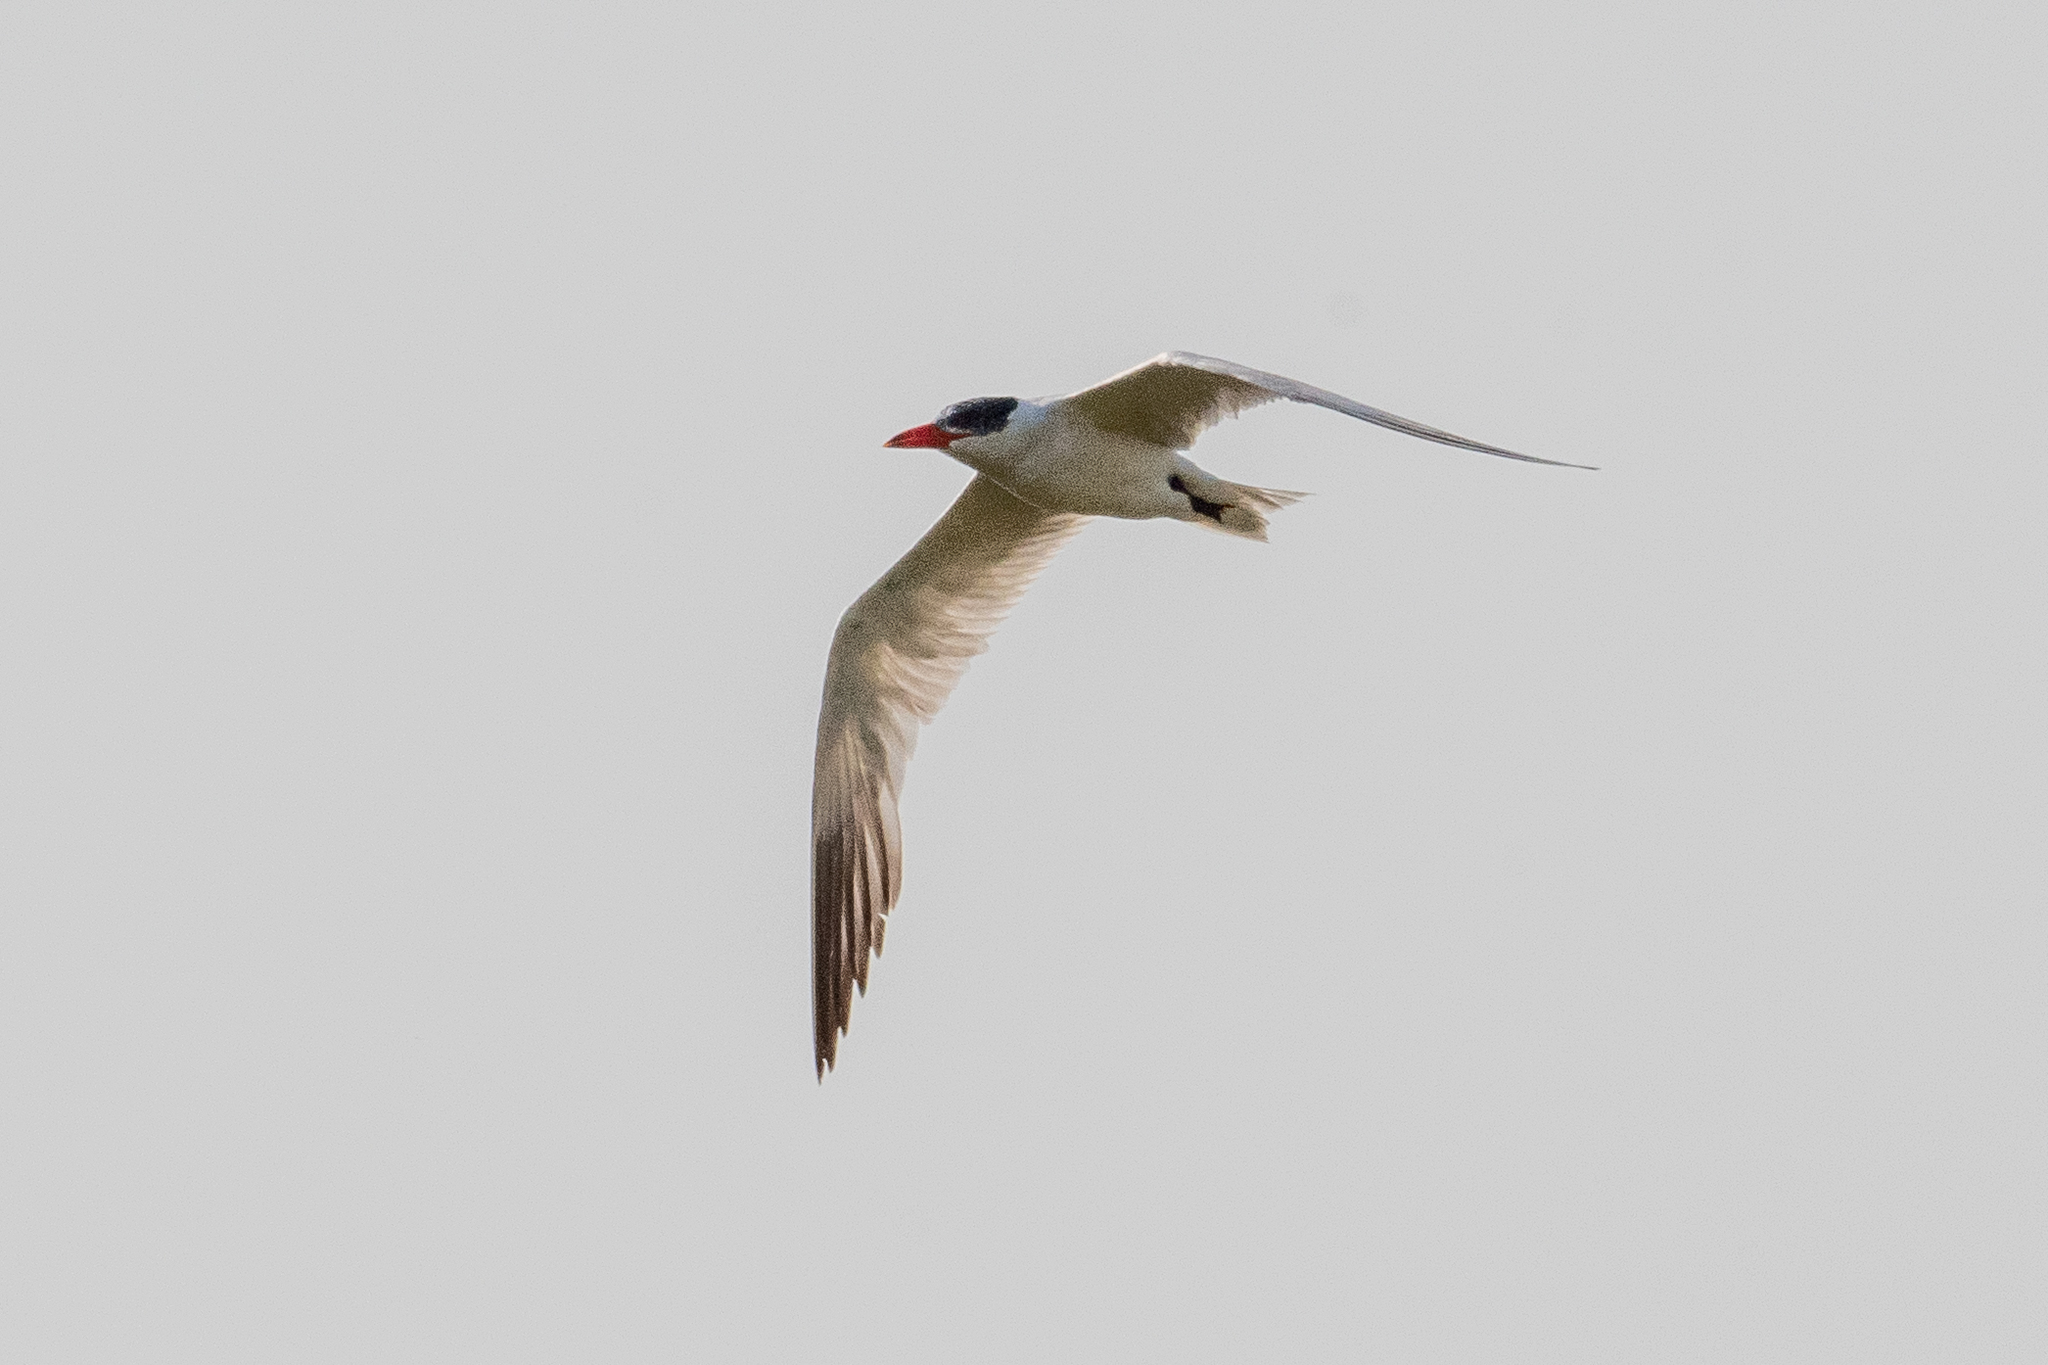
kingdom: Animalia
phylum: Chordata
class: Aves
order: Charadriiformes
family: Laridae
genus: Hydroprogne
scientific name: Hydroprogne caspia
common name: Caspian tern
